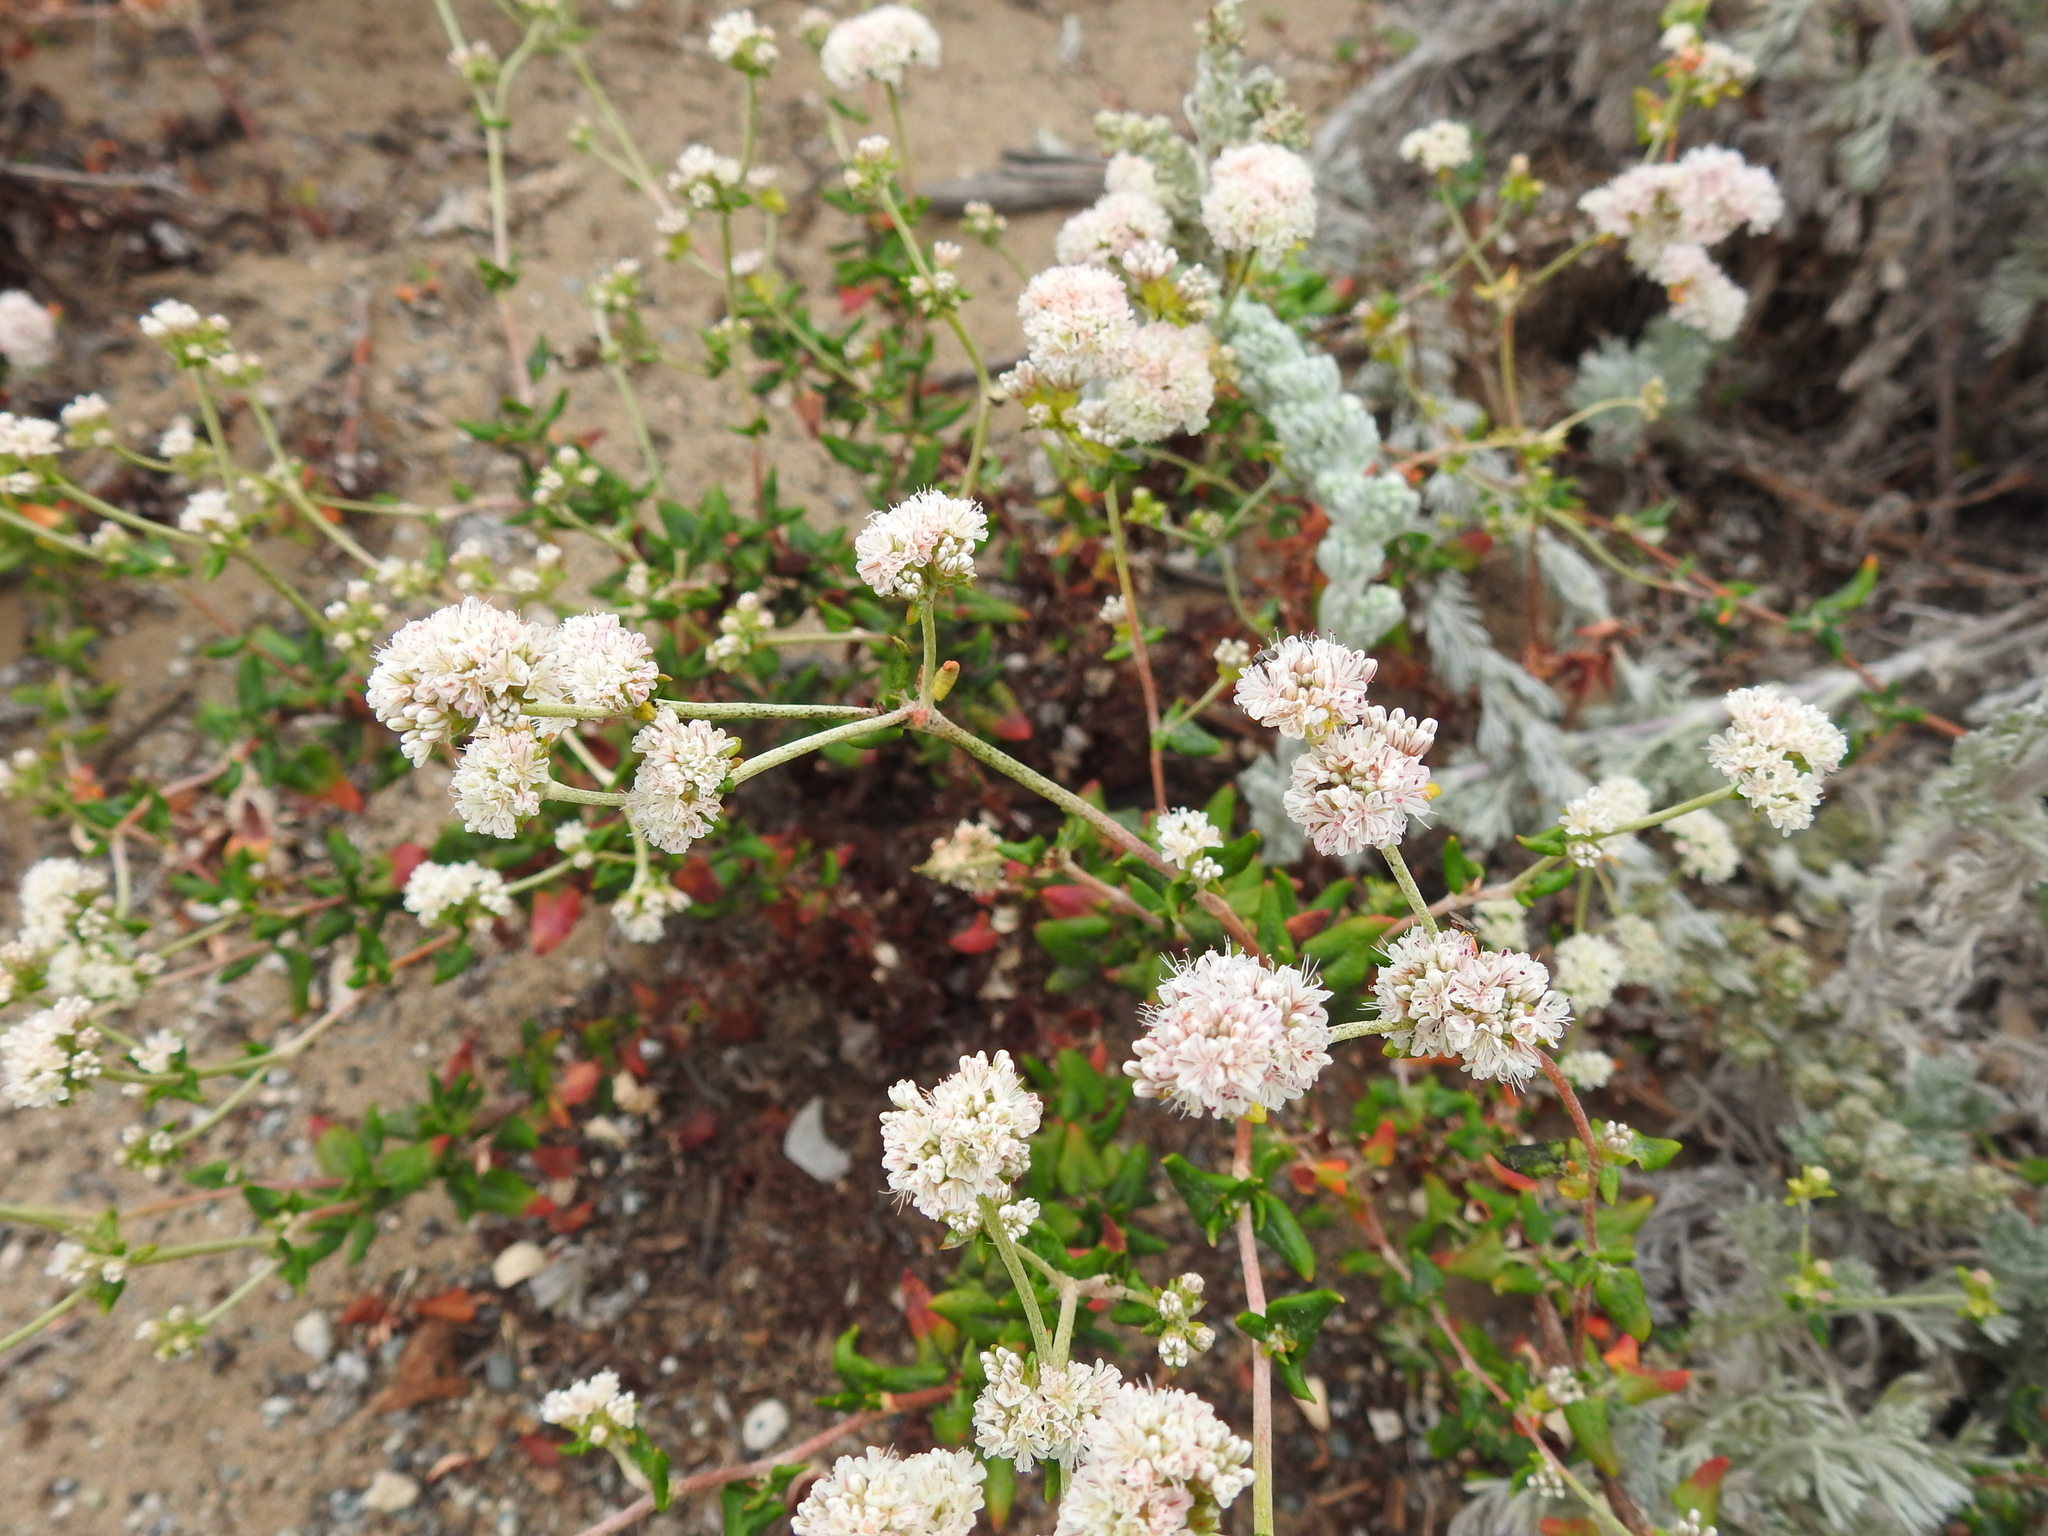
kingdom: Plantae
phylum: Tracheophyta
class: Magnoliopsida
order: Caryophyllales
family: Polygonaceae
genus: Eriogonum
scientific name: Eriogonum parvifolium
